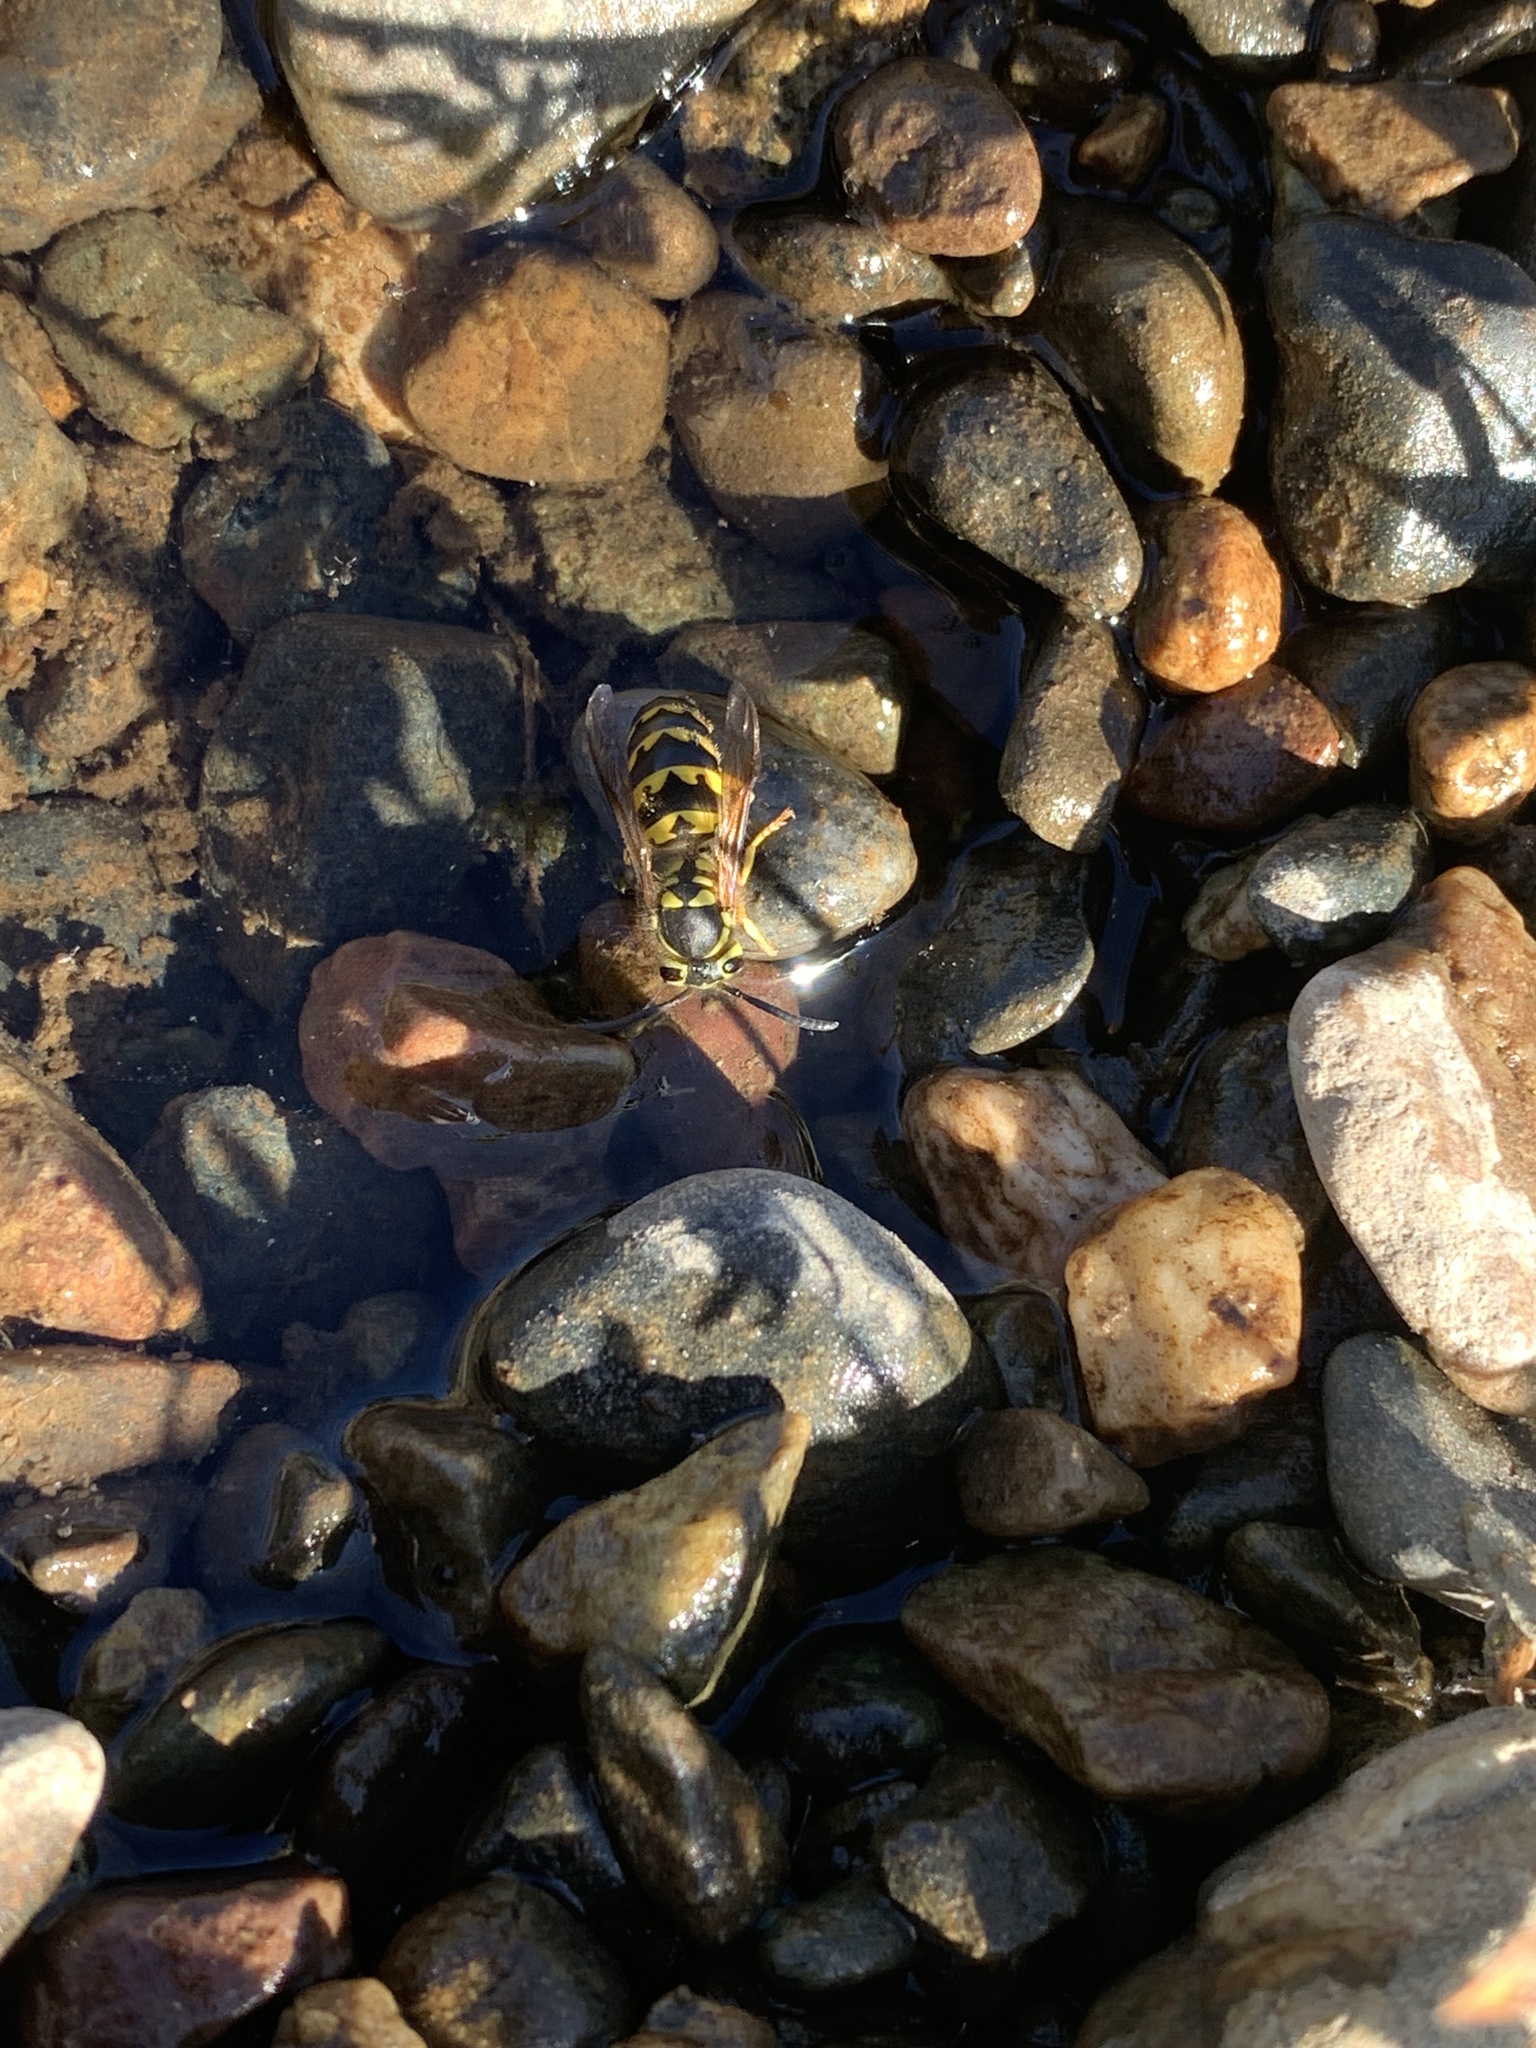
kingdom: Animalia
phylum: Arthropoda
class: Insecta
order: Hymenoptera
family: Vespidae
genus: Vespula
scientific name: Vespula pensylvanica
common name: Western yellowjacket
